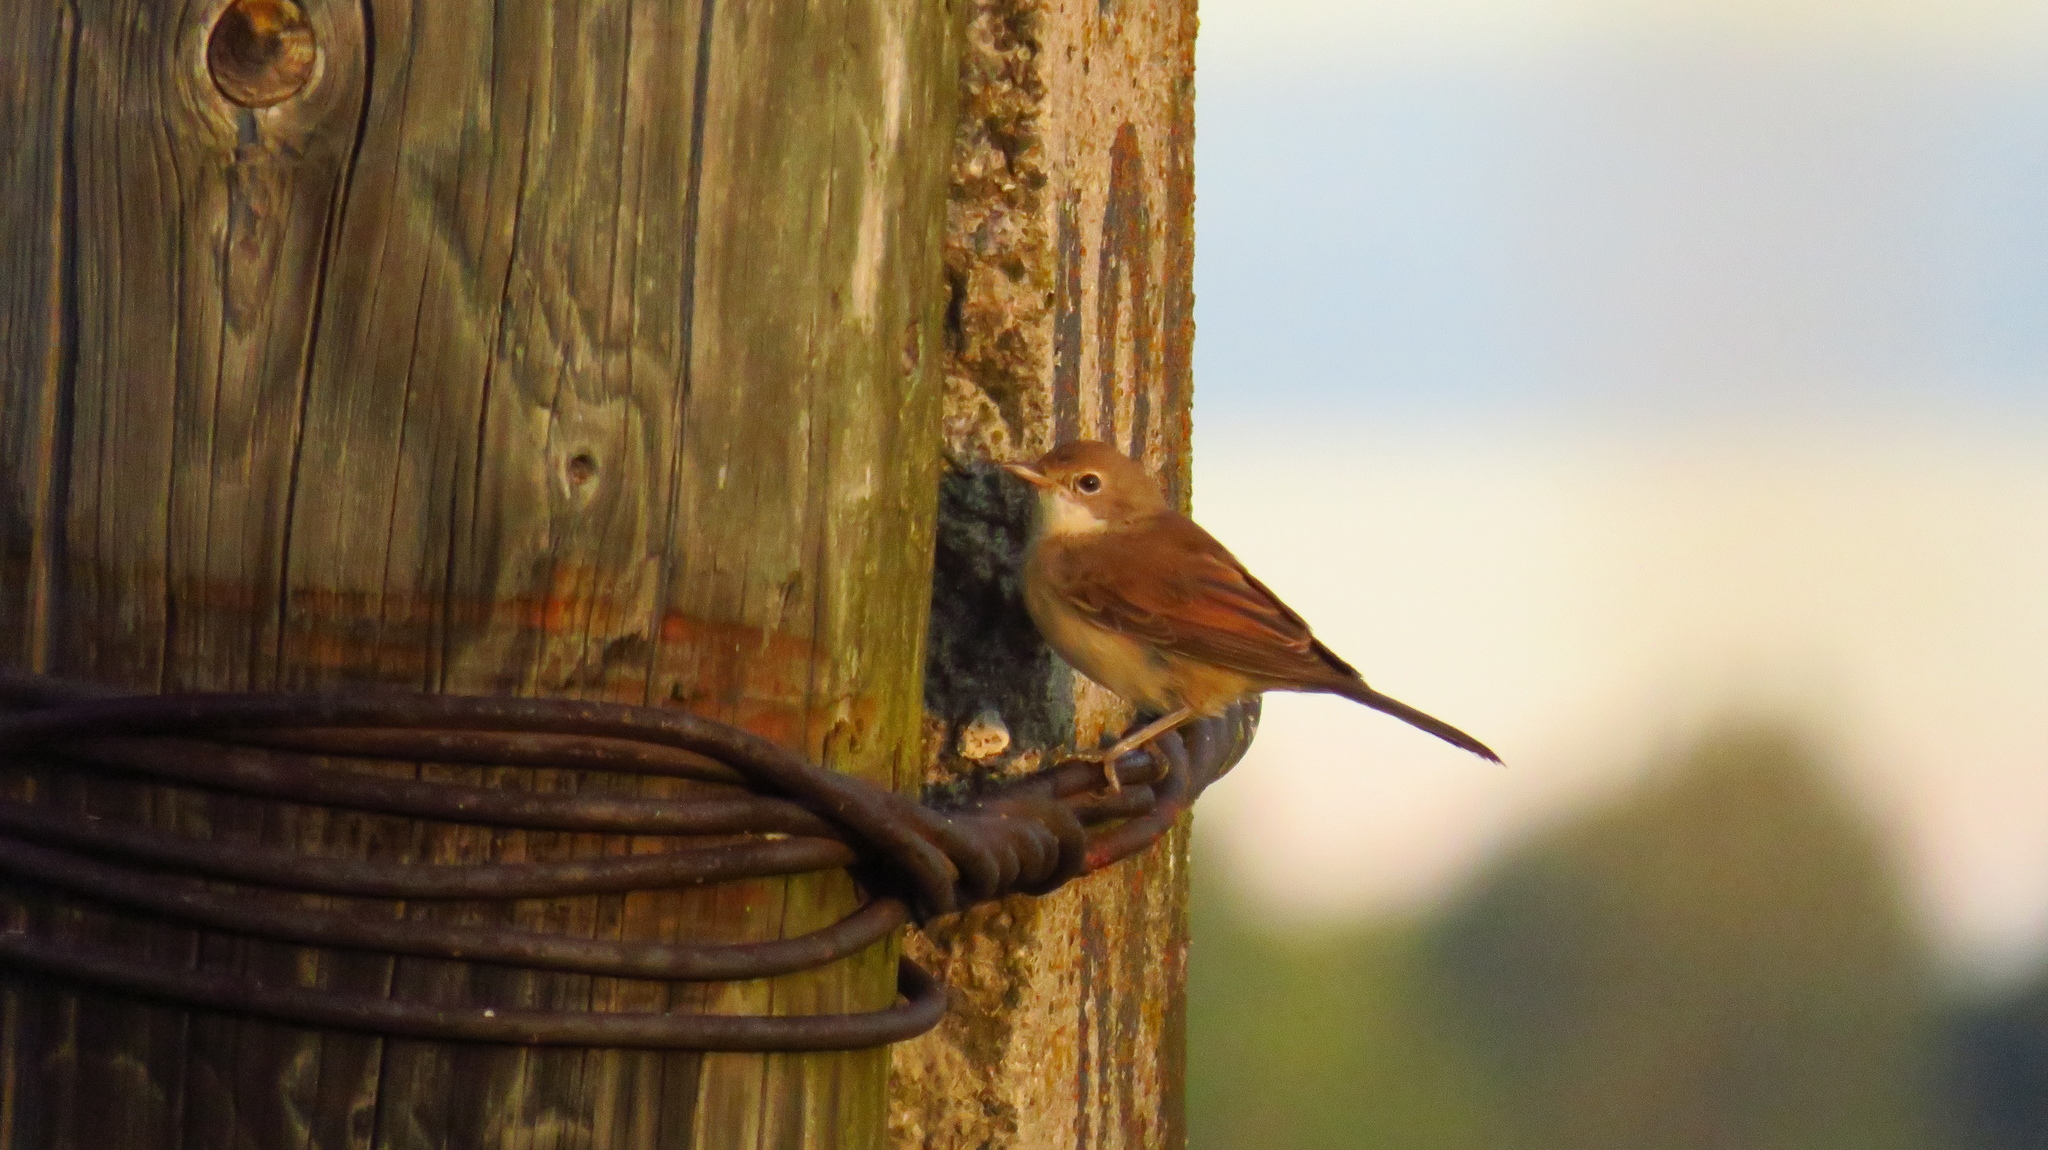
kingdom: Animalia
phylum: Chordata
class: Aves
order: Passeriformes
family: Sylviidae
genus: Sylvia
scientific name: Sylvia communis
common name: Common whitethroat
